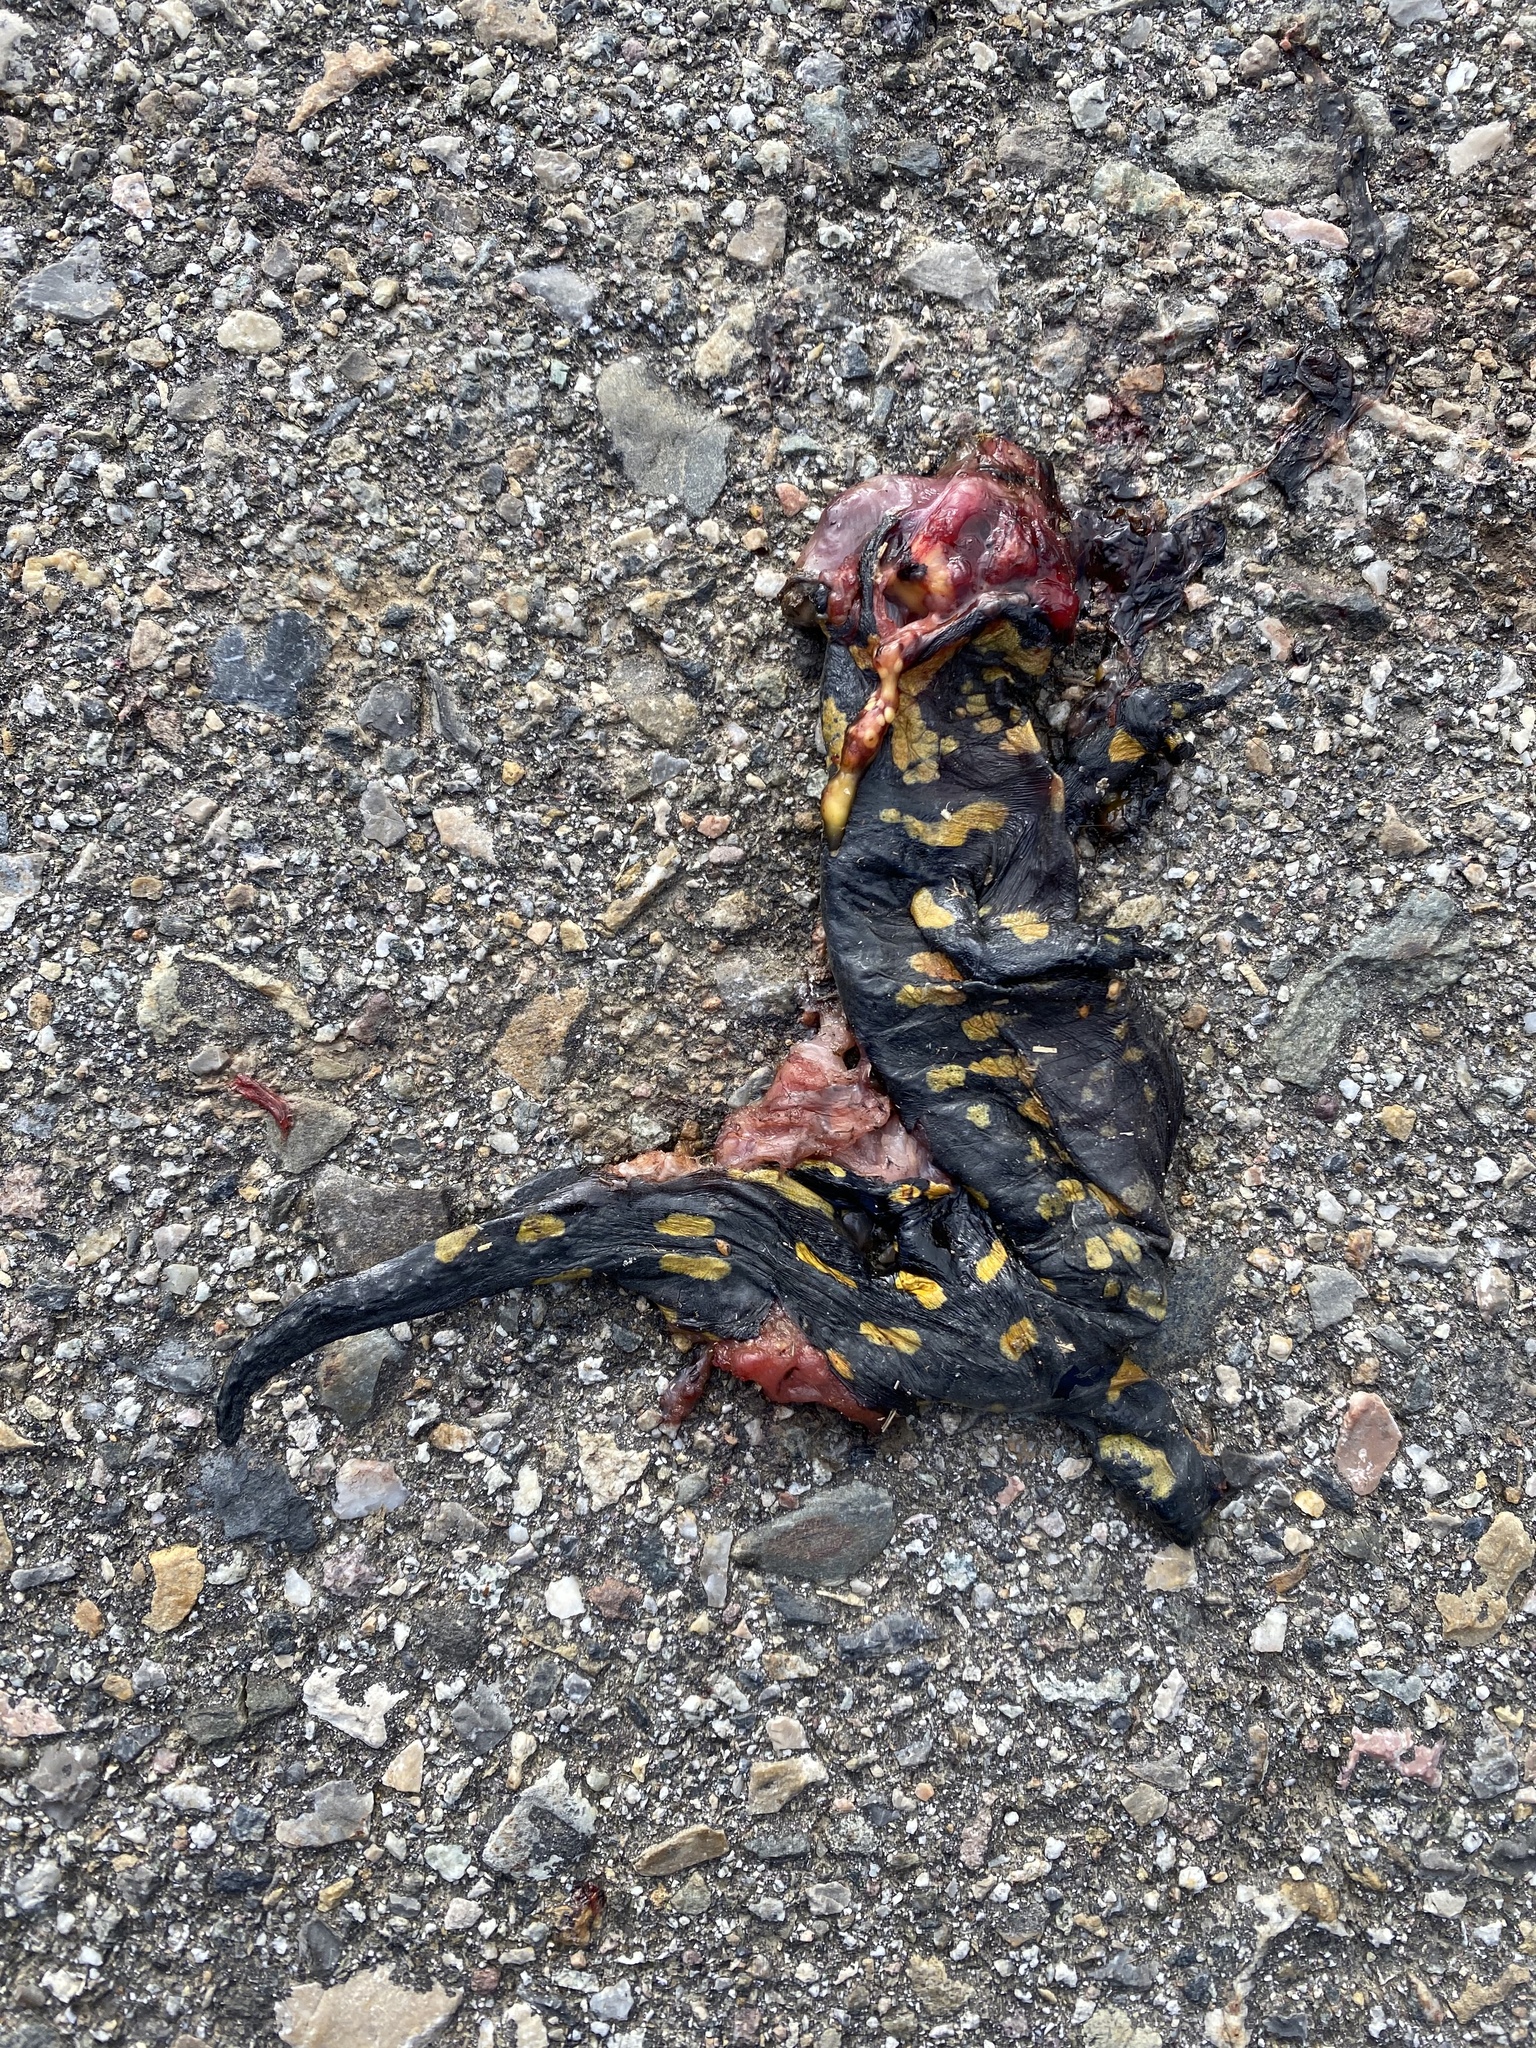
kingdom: Animalia
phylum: Chordata
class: Amphibia
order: Caudata
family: Salamandridae
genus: Salamandra
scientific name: Salamandra salamandra
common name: Fire salamander
